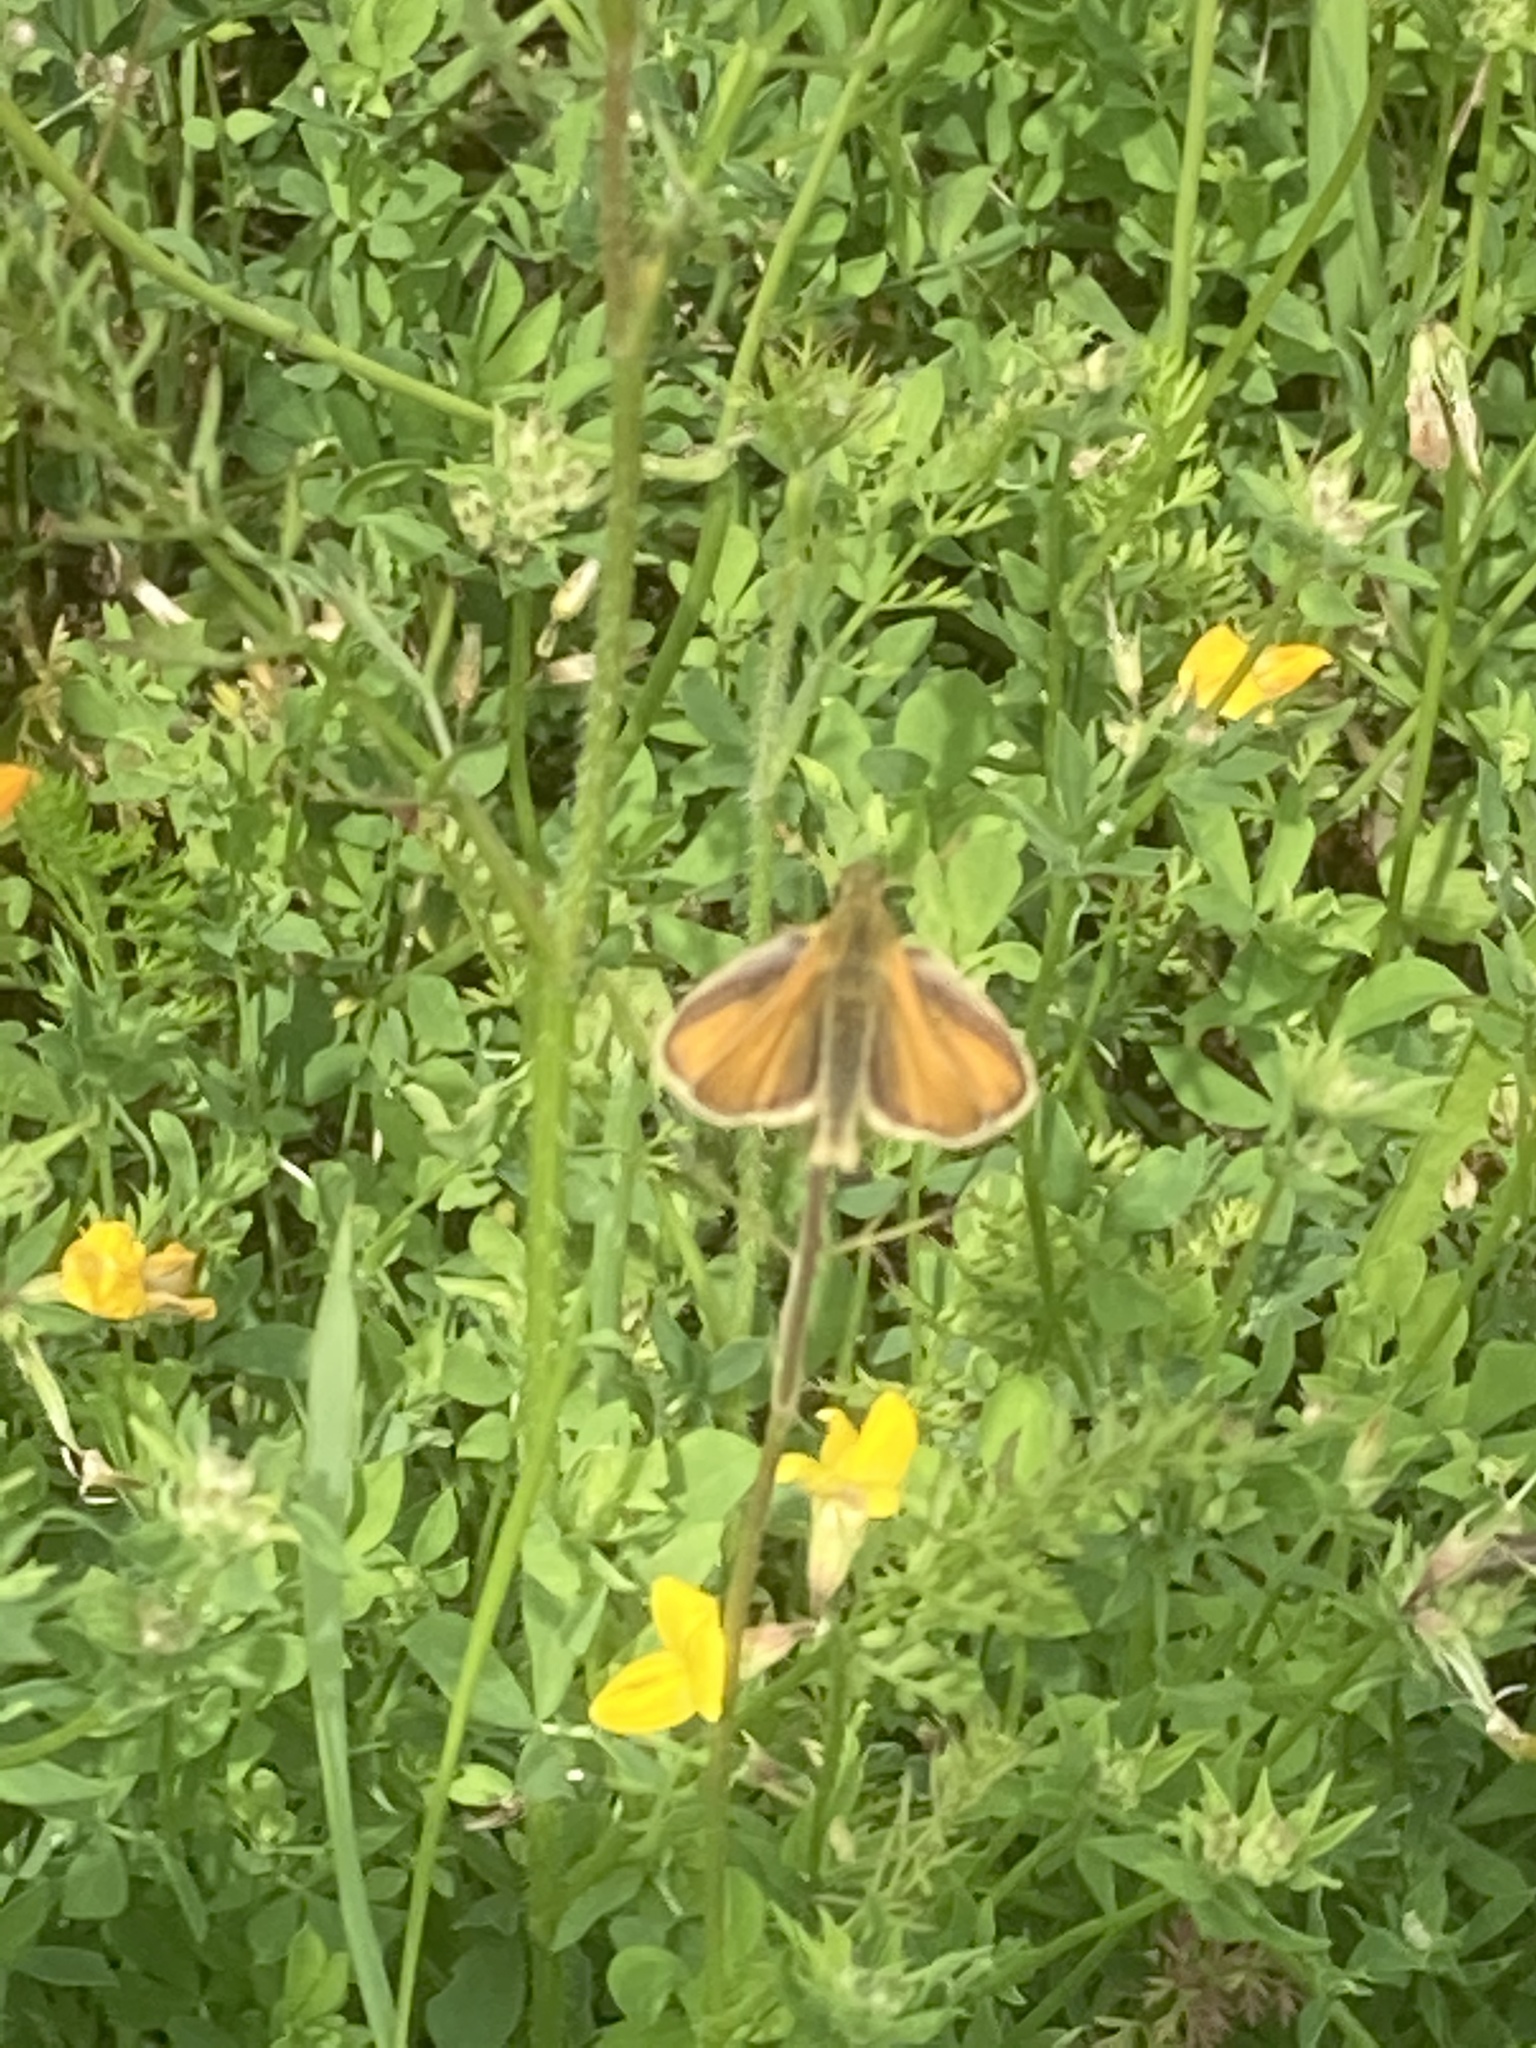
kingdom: Animalia
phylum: Arthropoda
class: Insecta
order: Lepidoptera
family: Hesperiidae
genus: Thymelicus
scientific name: Thymelicus lineola
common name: Essex skipper
